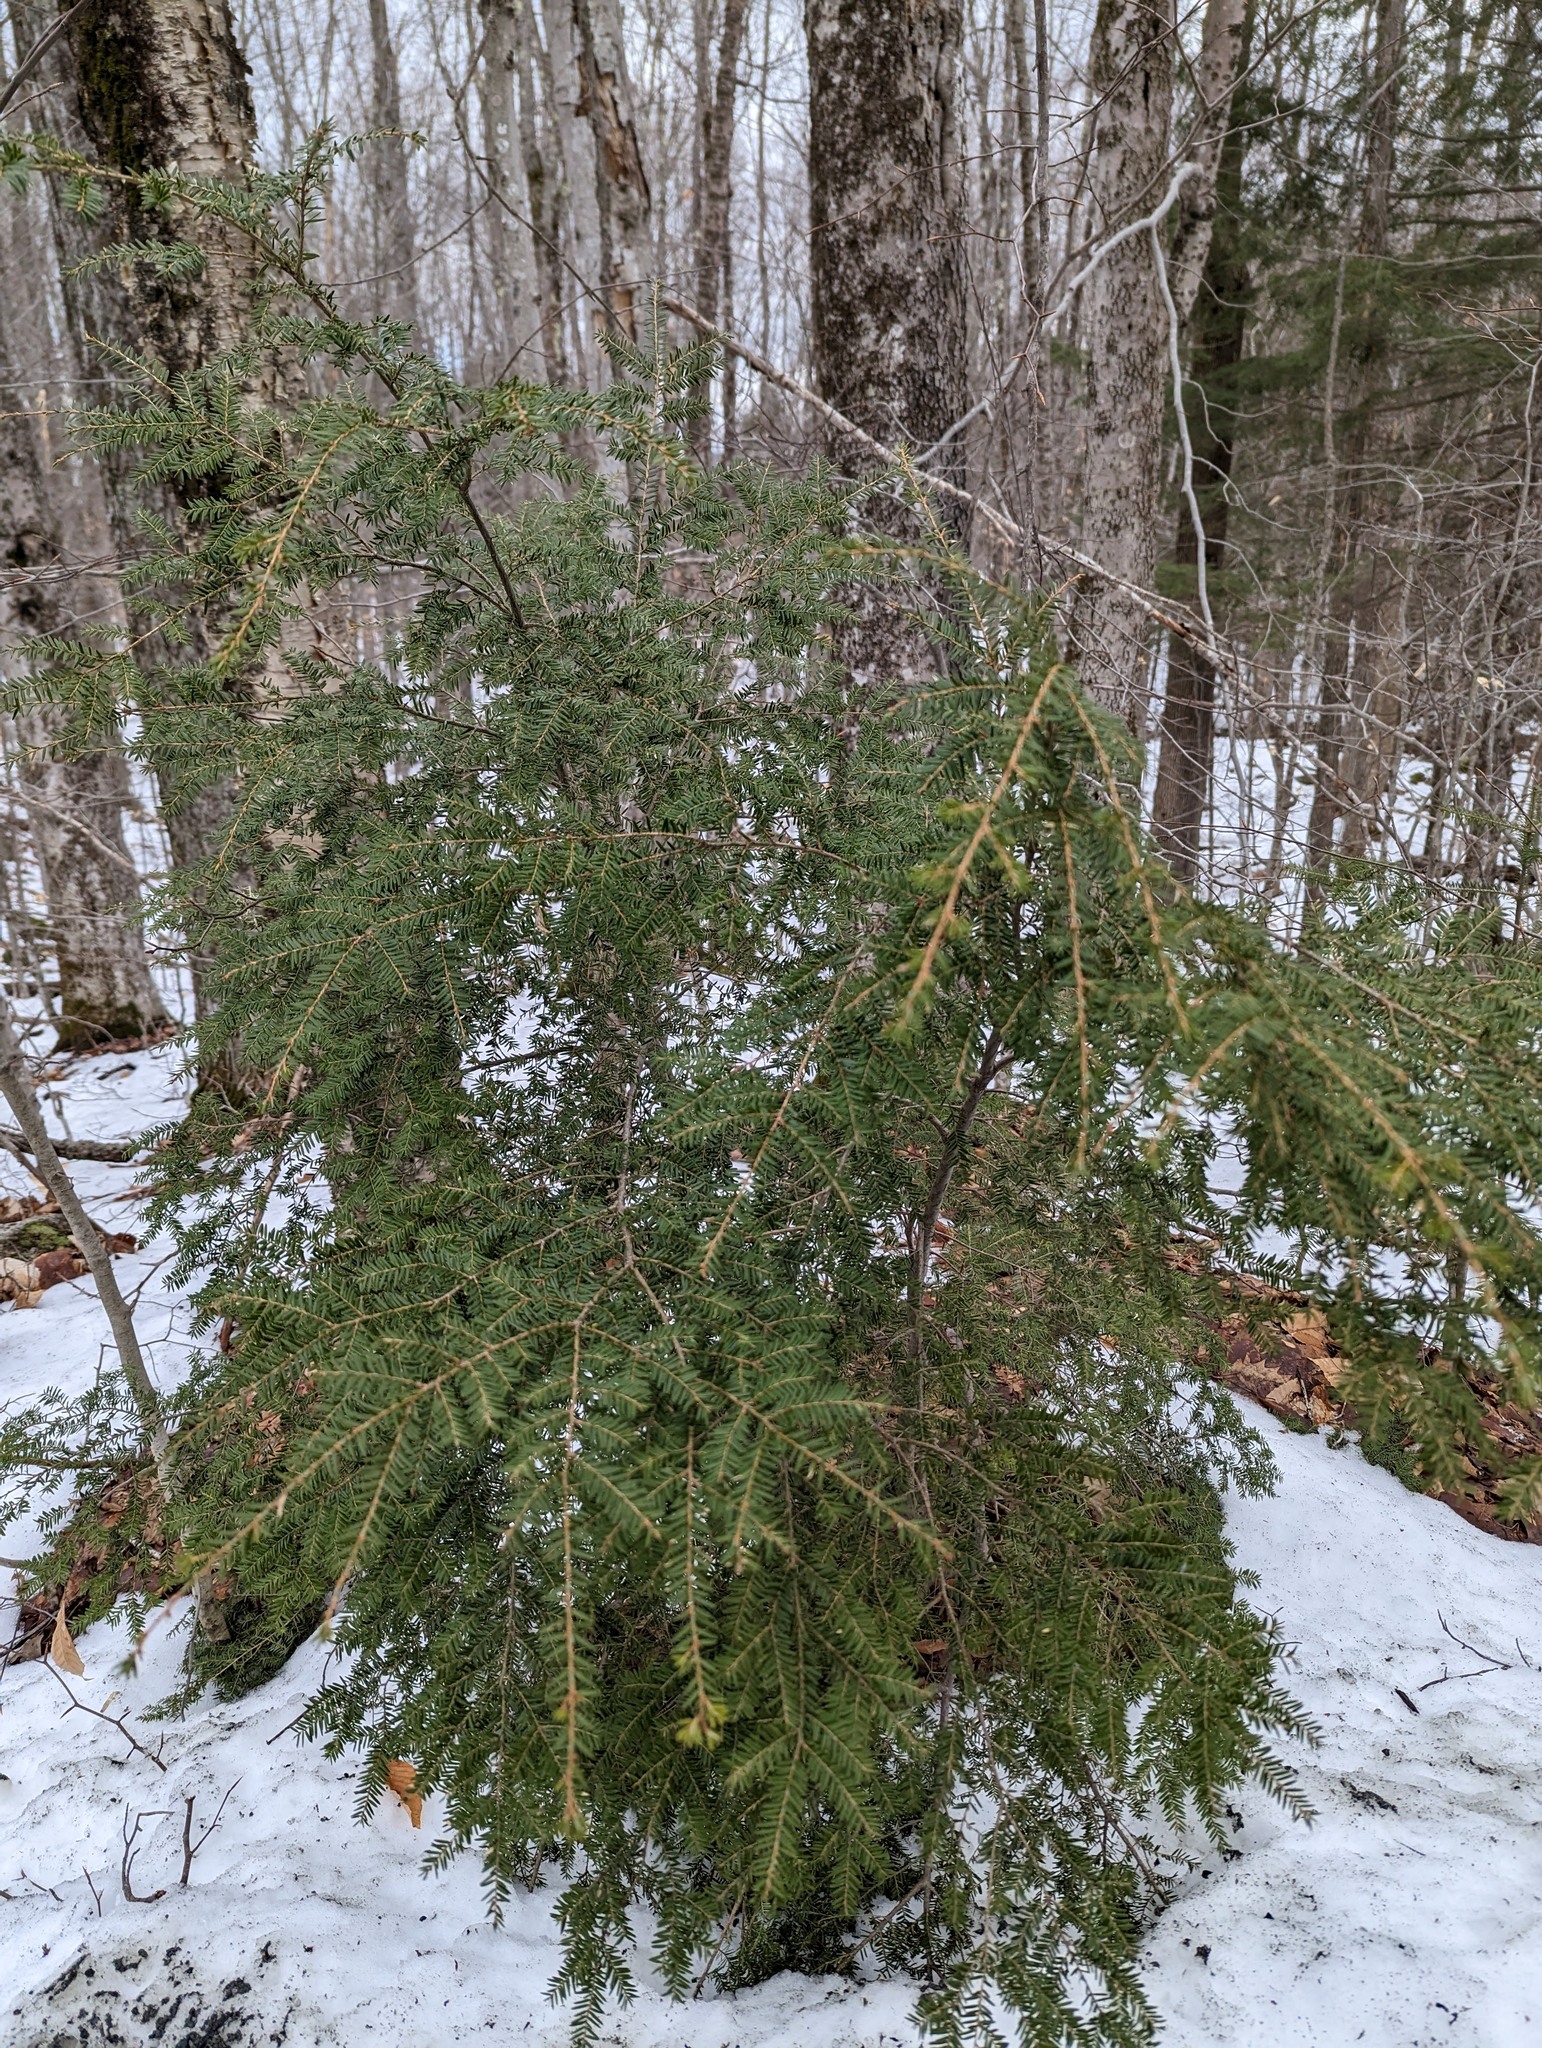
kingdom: Plantae
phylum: Tracheophyta
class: Pinopsida
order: Pinales
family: Pinaceae
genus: Tsuga
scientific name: Tsuga canadensis
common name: Eastern hemlock
